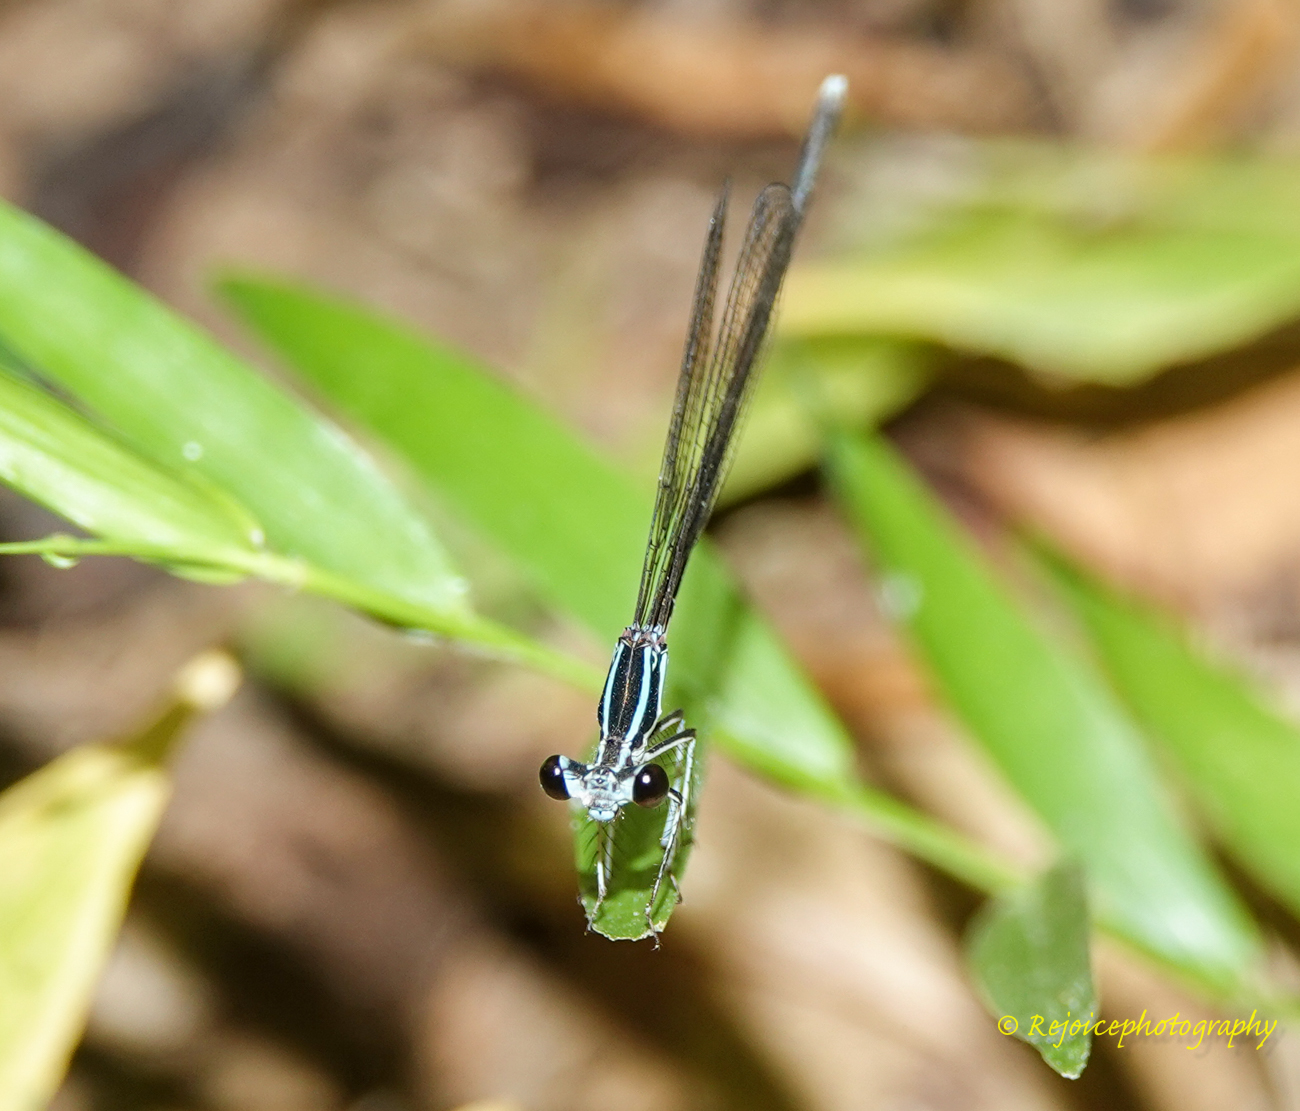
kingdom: Animalia
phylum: Arthropoda
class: Insecta
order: Odonata
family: Platycnemididae
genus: Pseudocopera
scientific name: Pseudocopera ciliata
